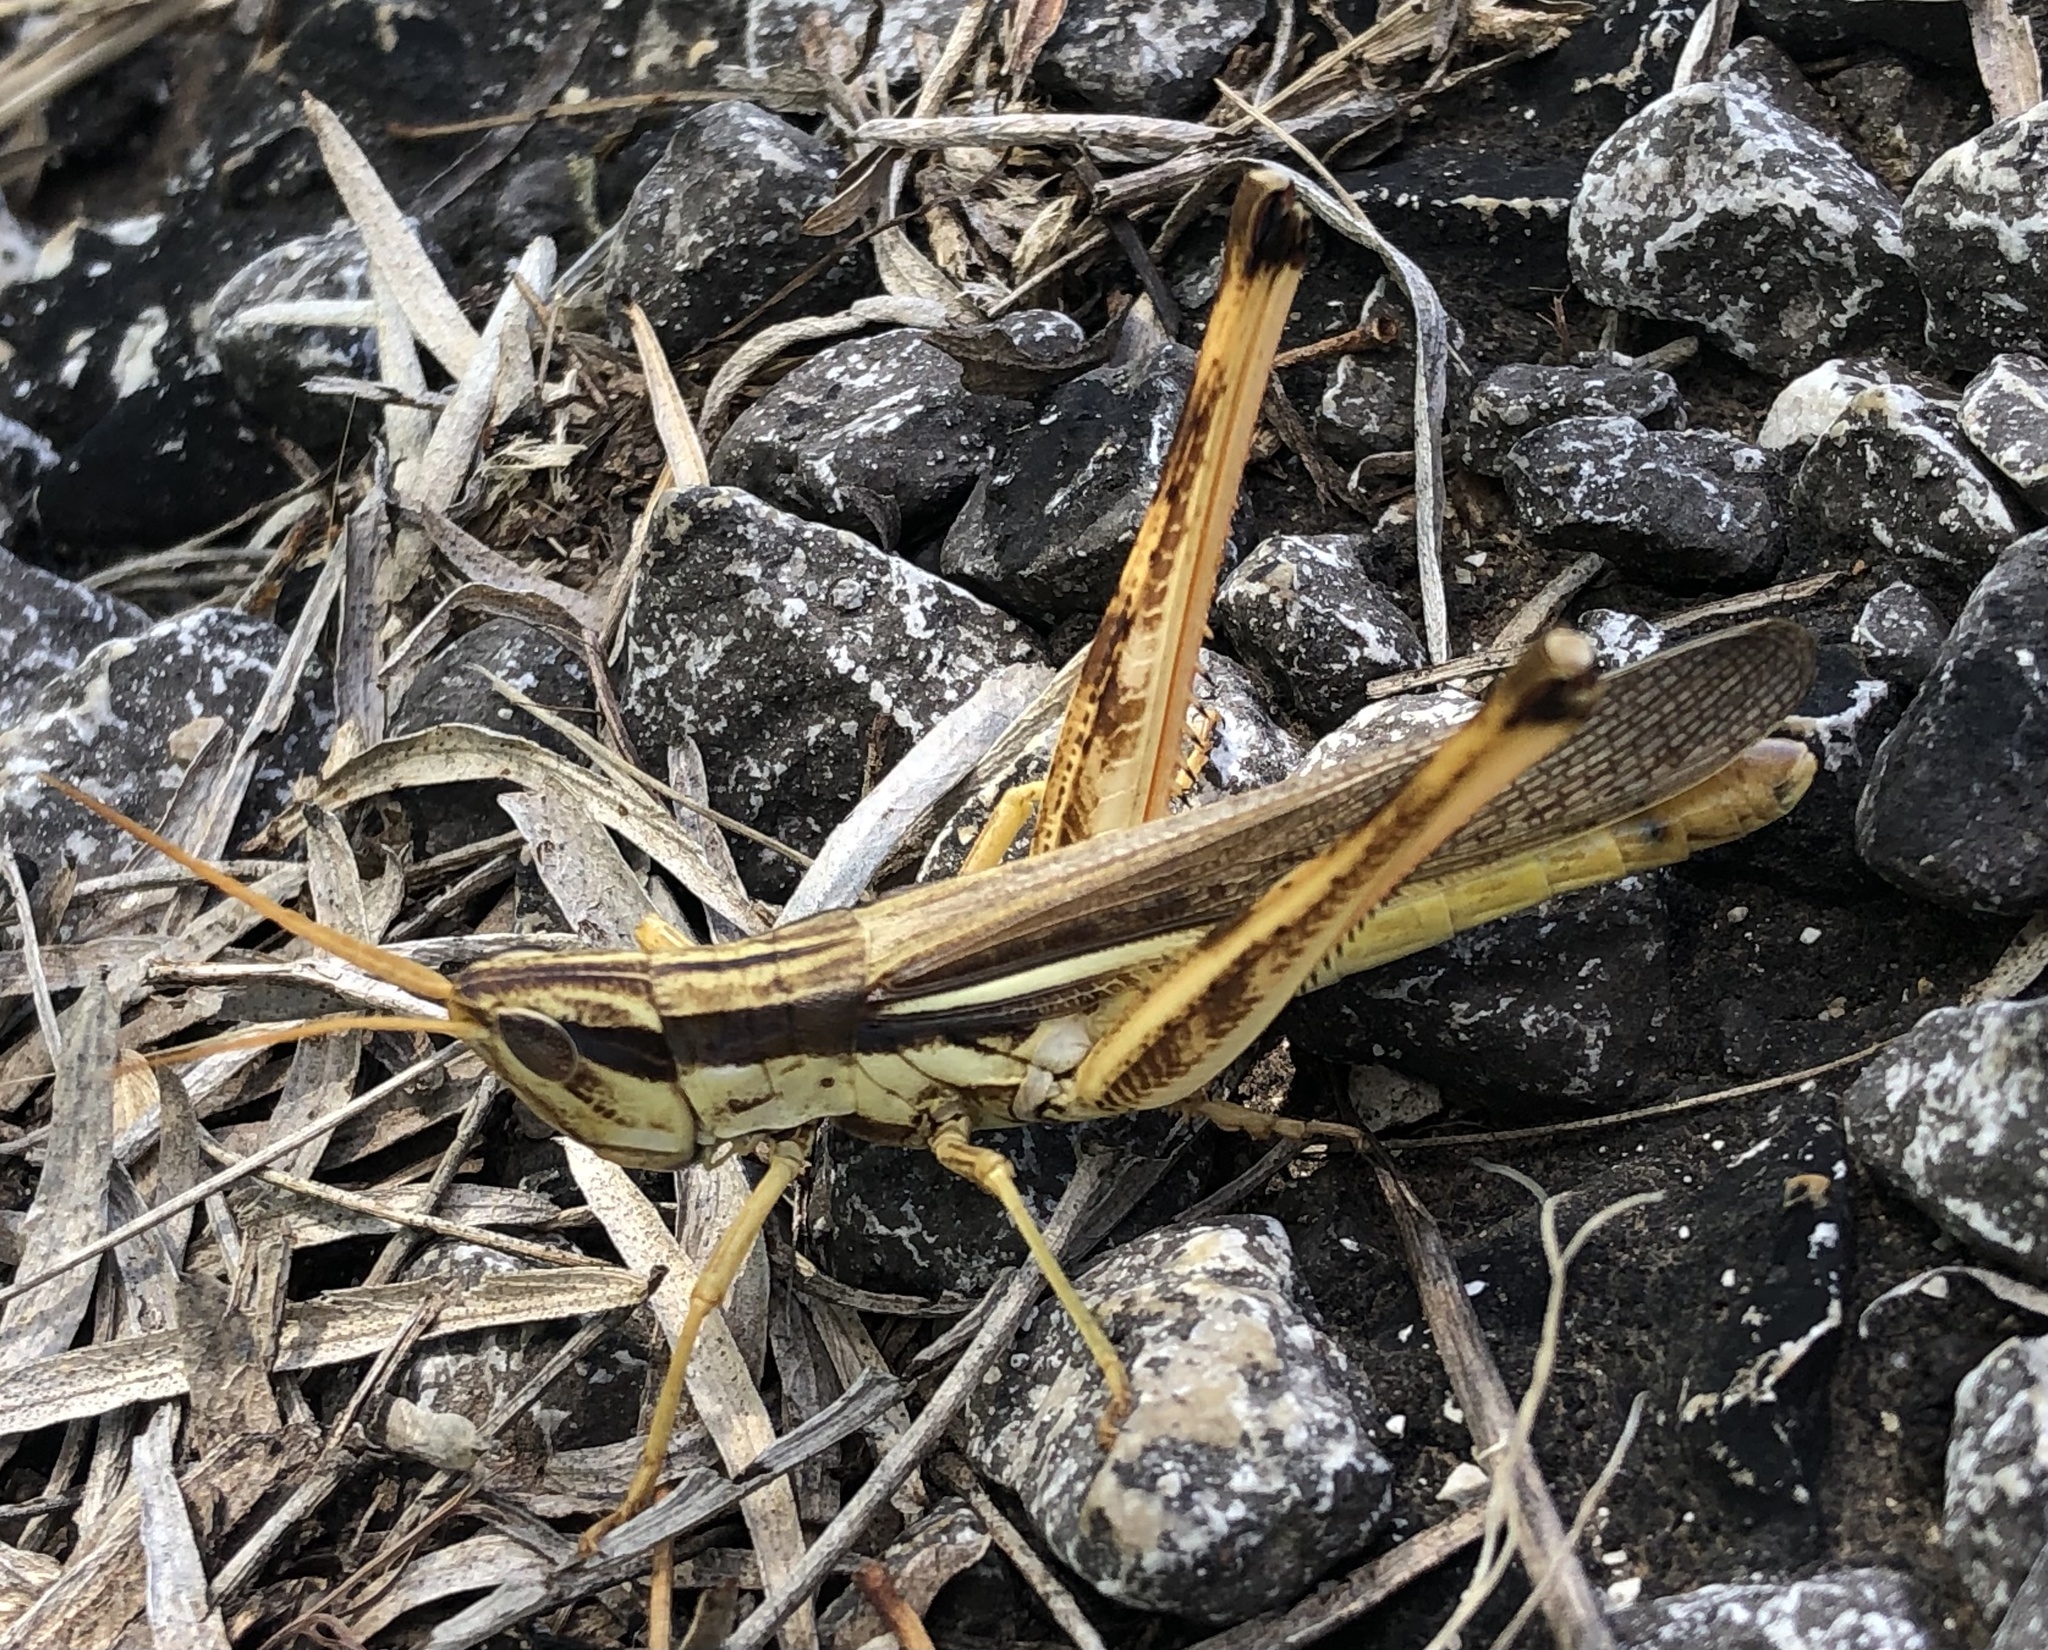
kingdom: Animalia
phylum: Arthropoda
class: Insecta
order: Orthoptera
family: Acrididae
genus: Mermiria
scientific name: Mermiria bivittata
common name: Two-striped mermiria grasshopper
